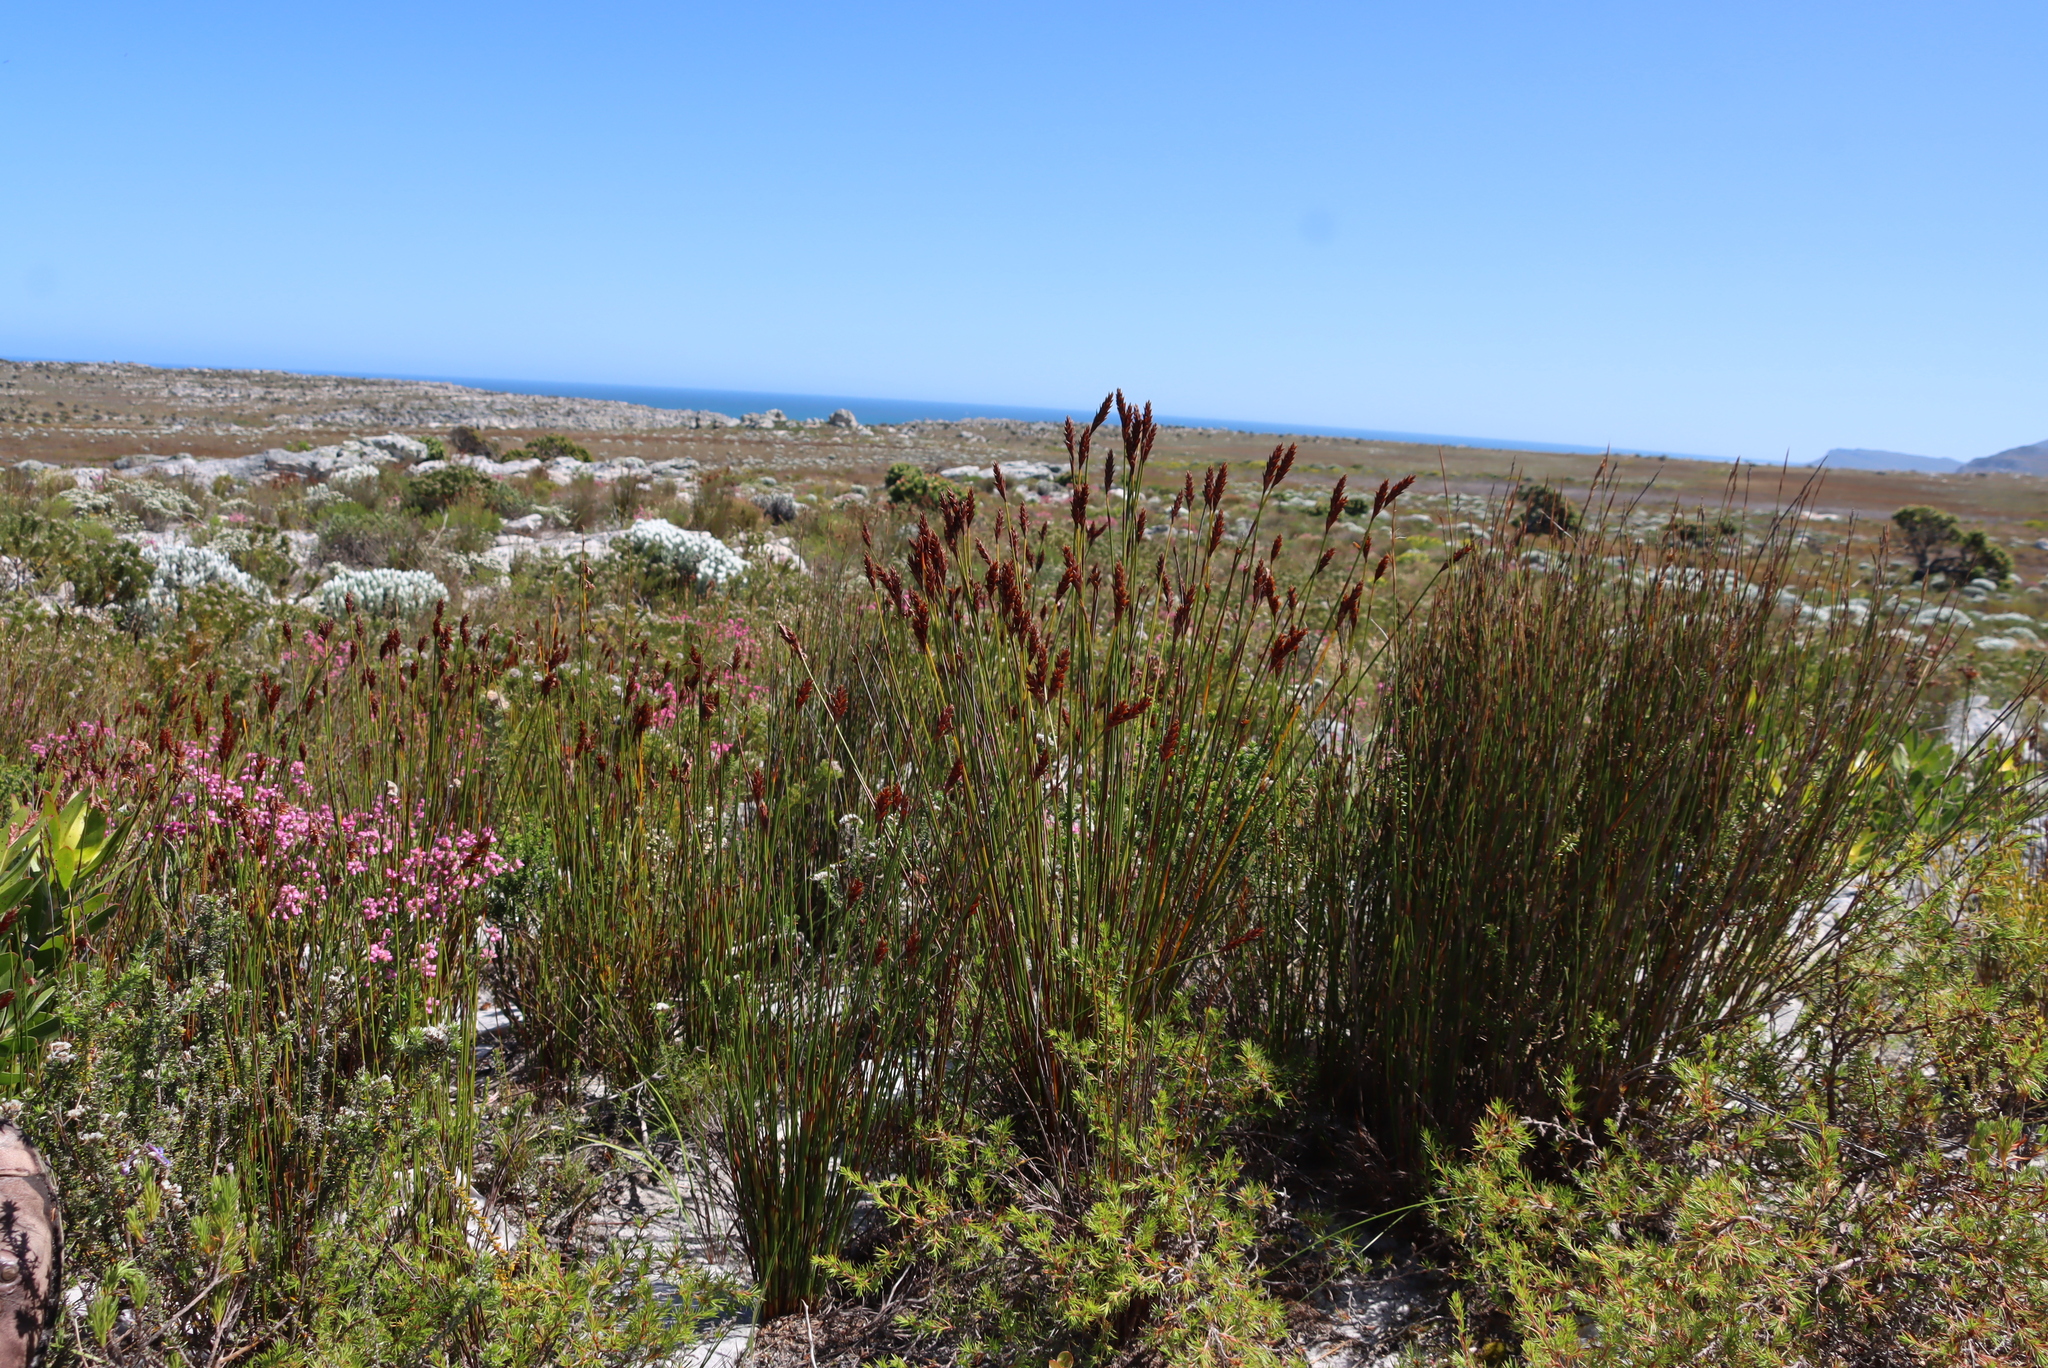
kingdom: Plantae
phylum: Tracheophyta
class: Liliopsida
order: Poales
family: Restionaceae
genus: Staberoha
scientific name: Staberoha banksii
